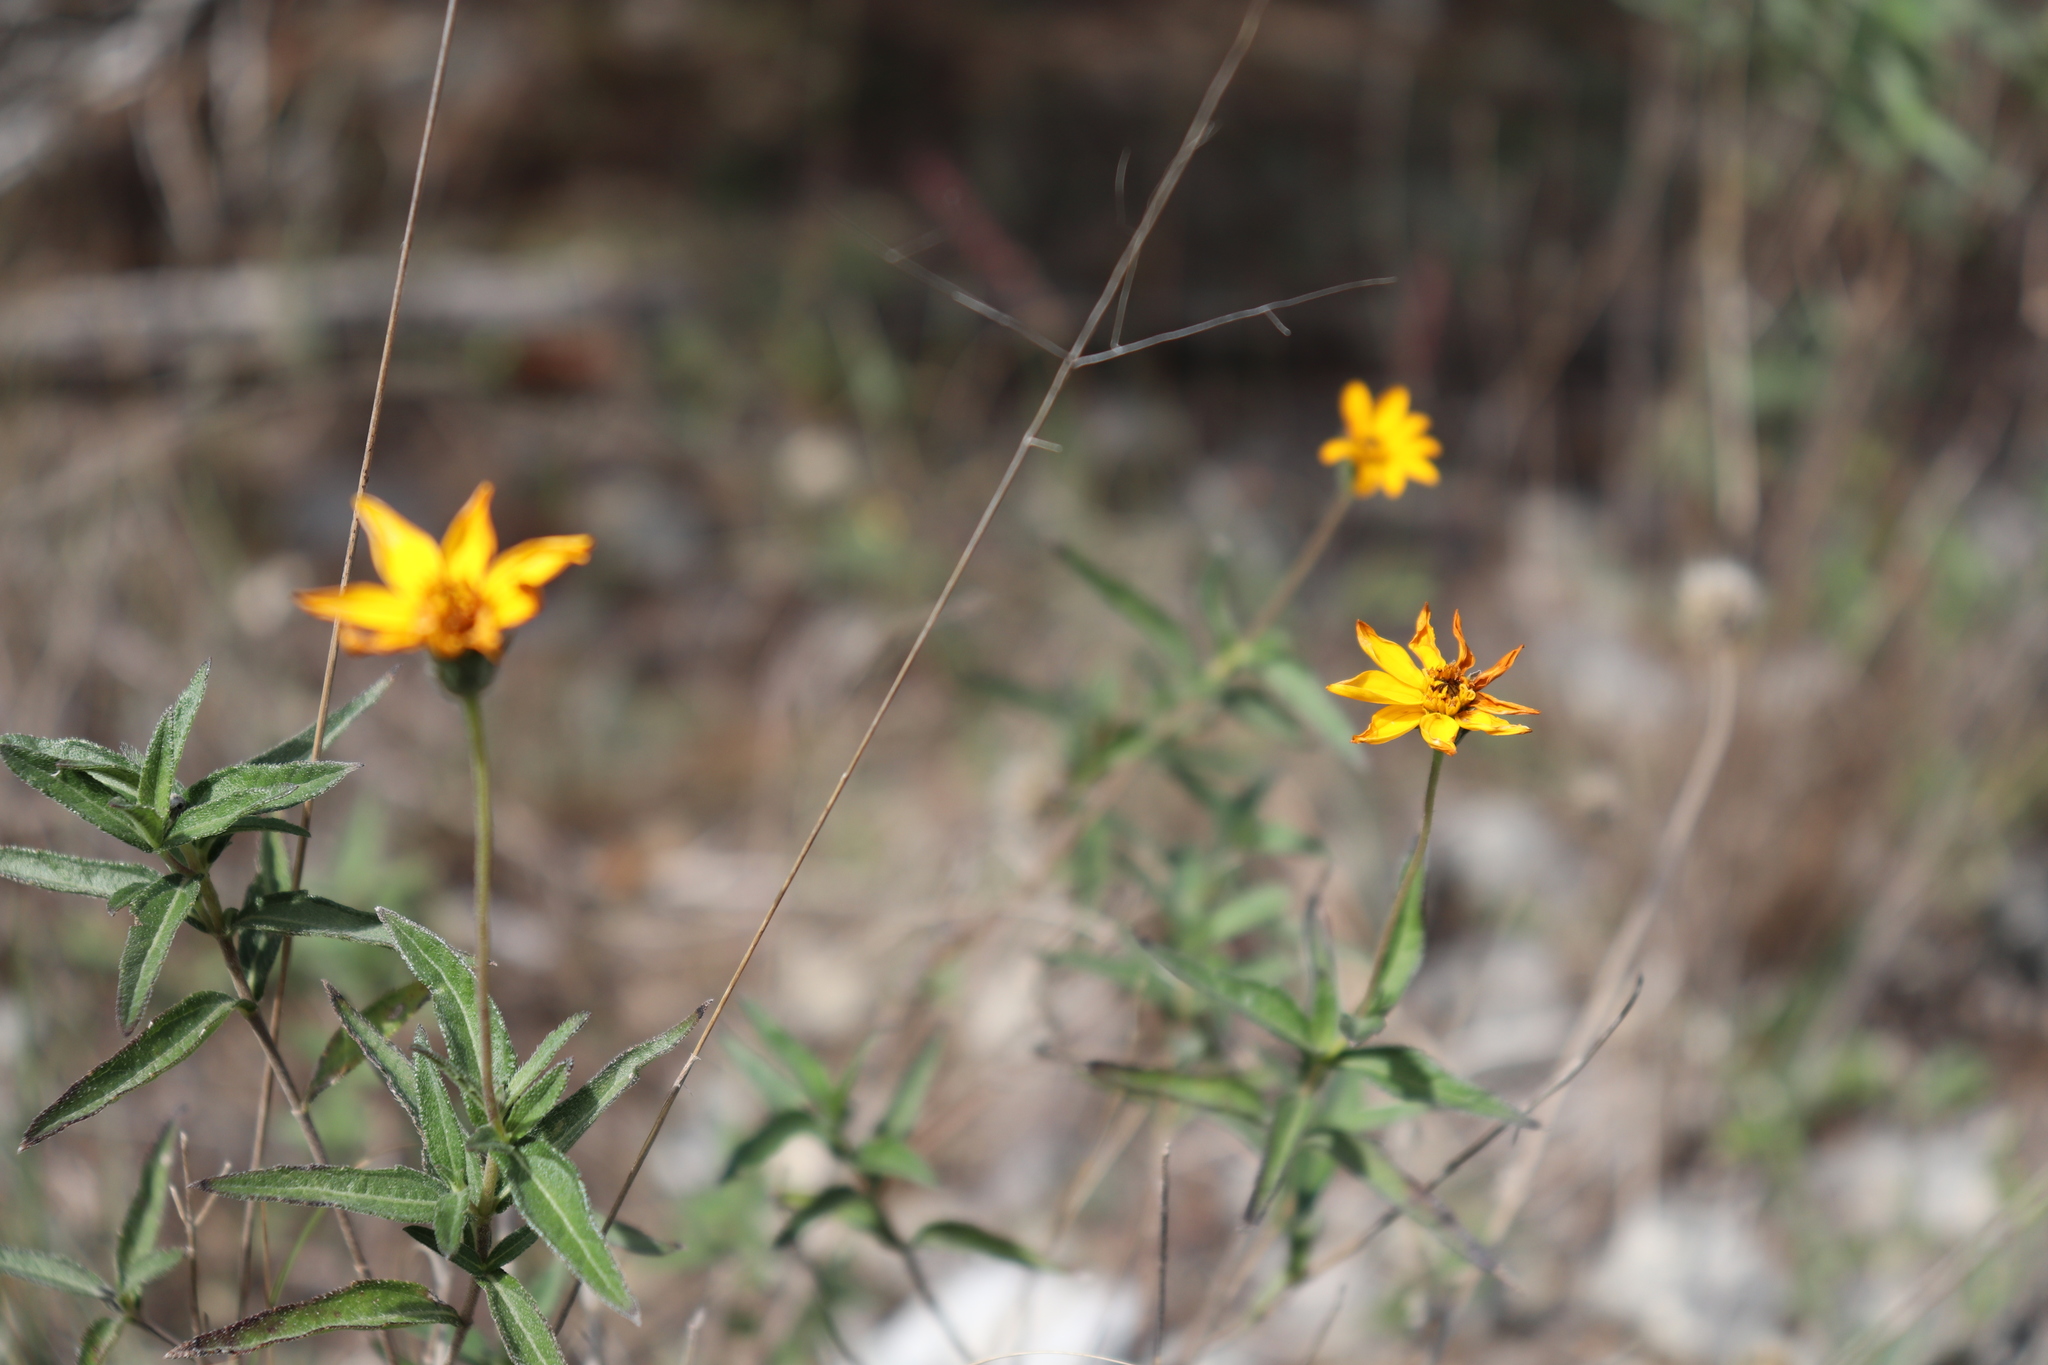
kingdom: Plantae
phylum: Tracheophyta
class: Magnoliopsida
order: Asterales
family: Asteraceae
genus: Wedelia
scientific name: Wedelia acapulcensis
